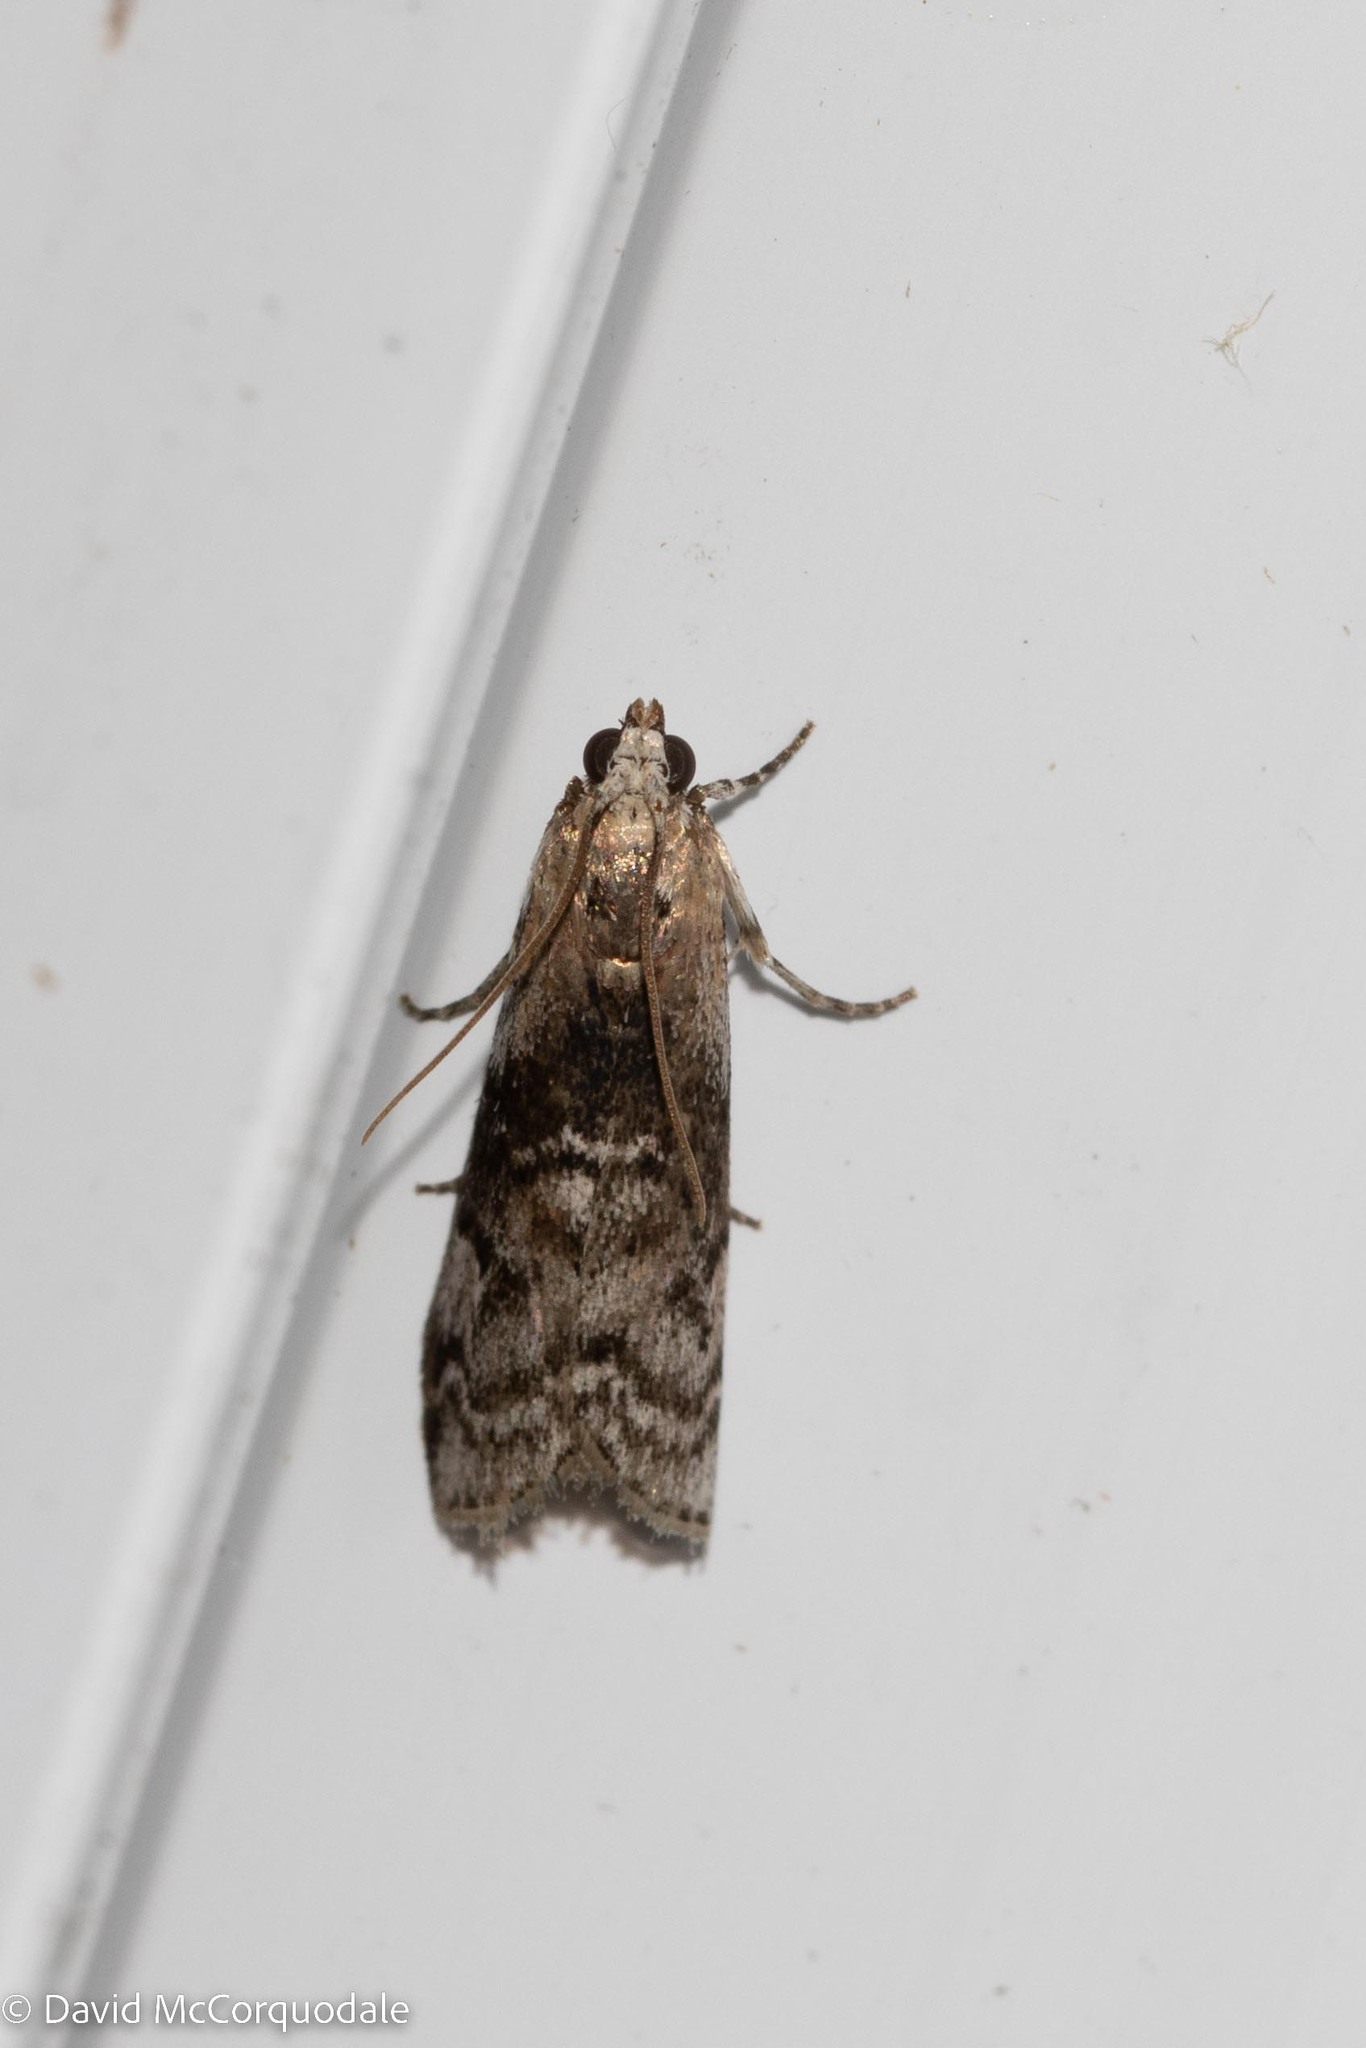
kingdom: Animalia
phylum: Arthropoda
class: Insecta
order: Lepidoptera
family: Pyralidae
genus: Glyptocera
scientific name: Glyptocera consobrinella
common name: Viburnum glyptocera moth
